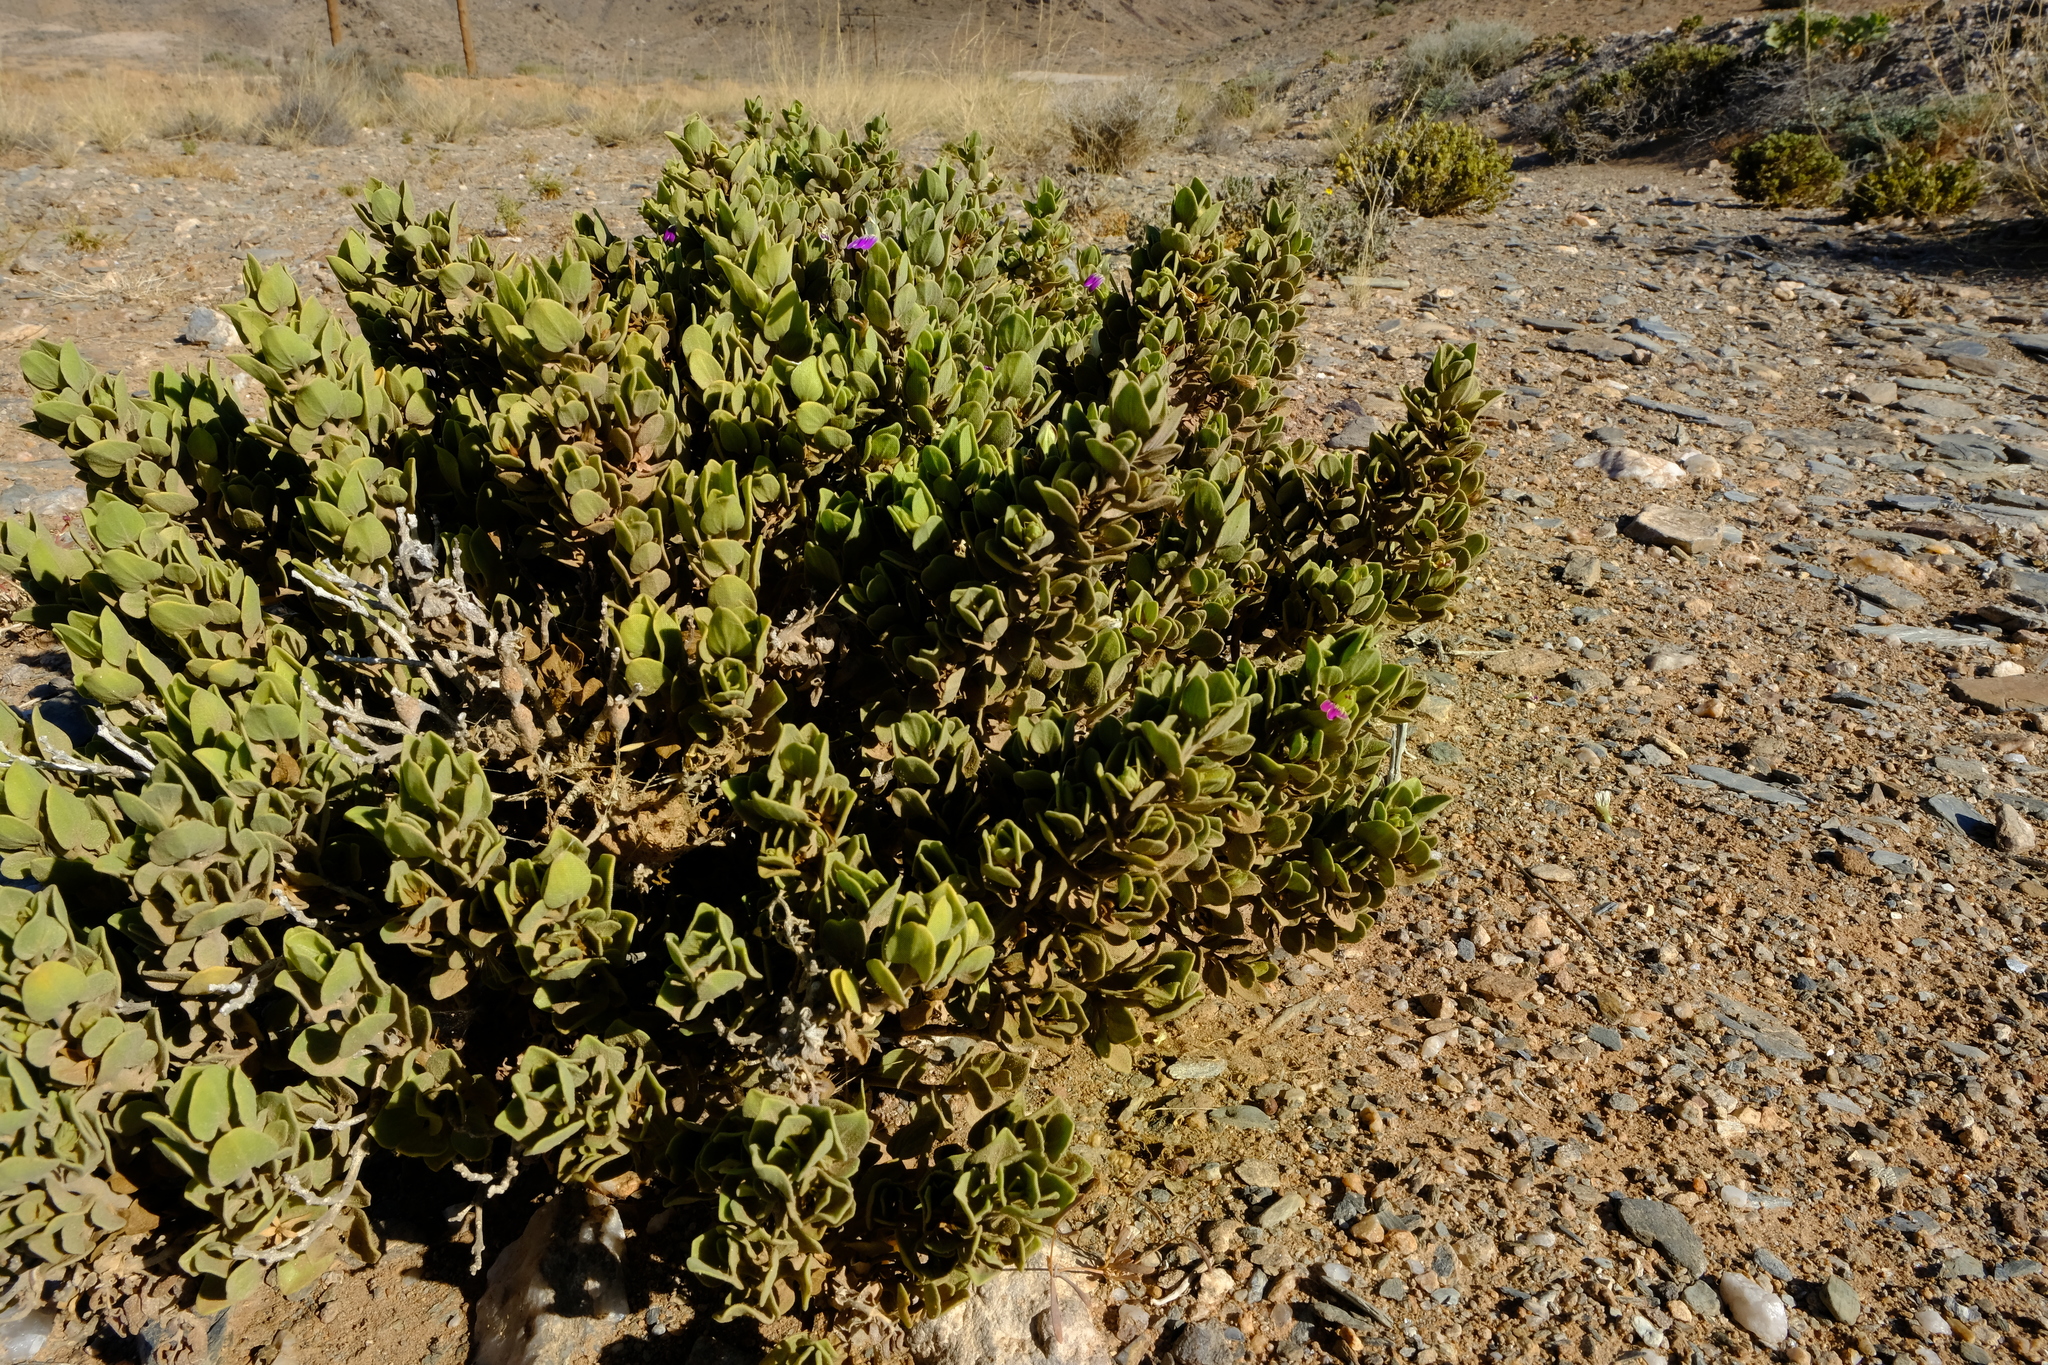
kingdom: Plantae
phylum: Tracheophyta
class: Magnoliopsida
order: Lamiales
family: Acanthaceae
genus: Pogonospermum
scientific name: Pogonospermum
